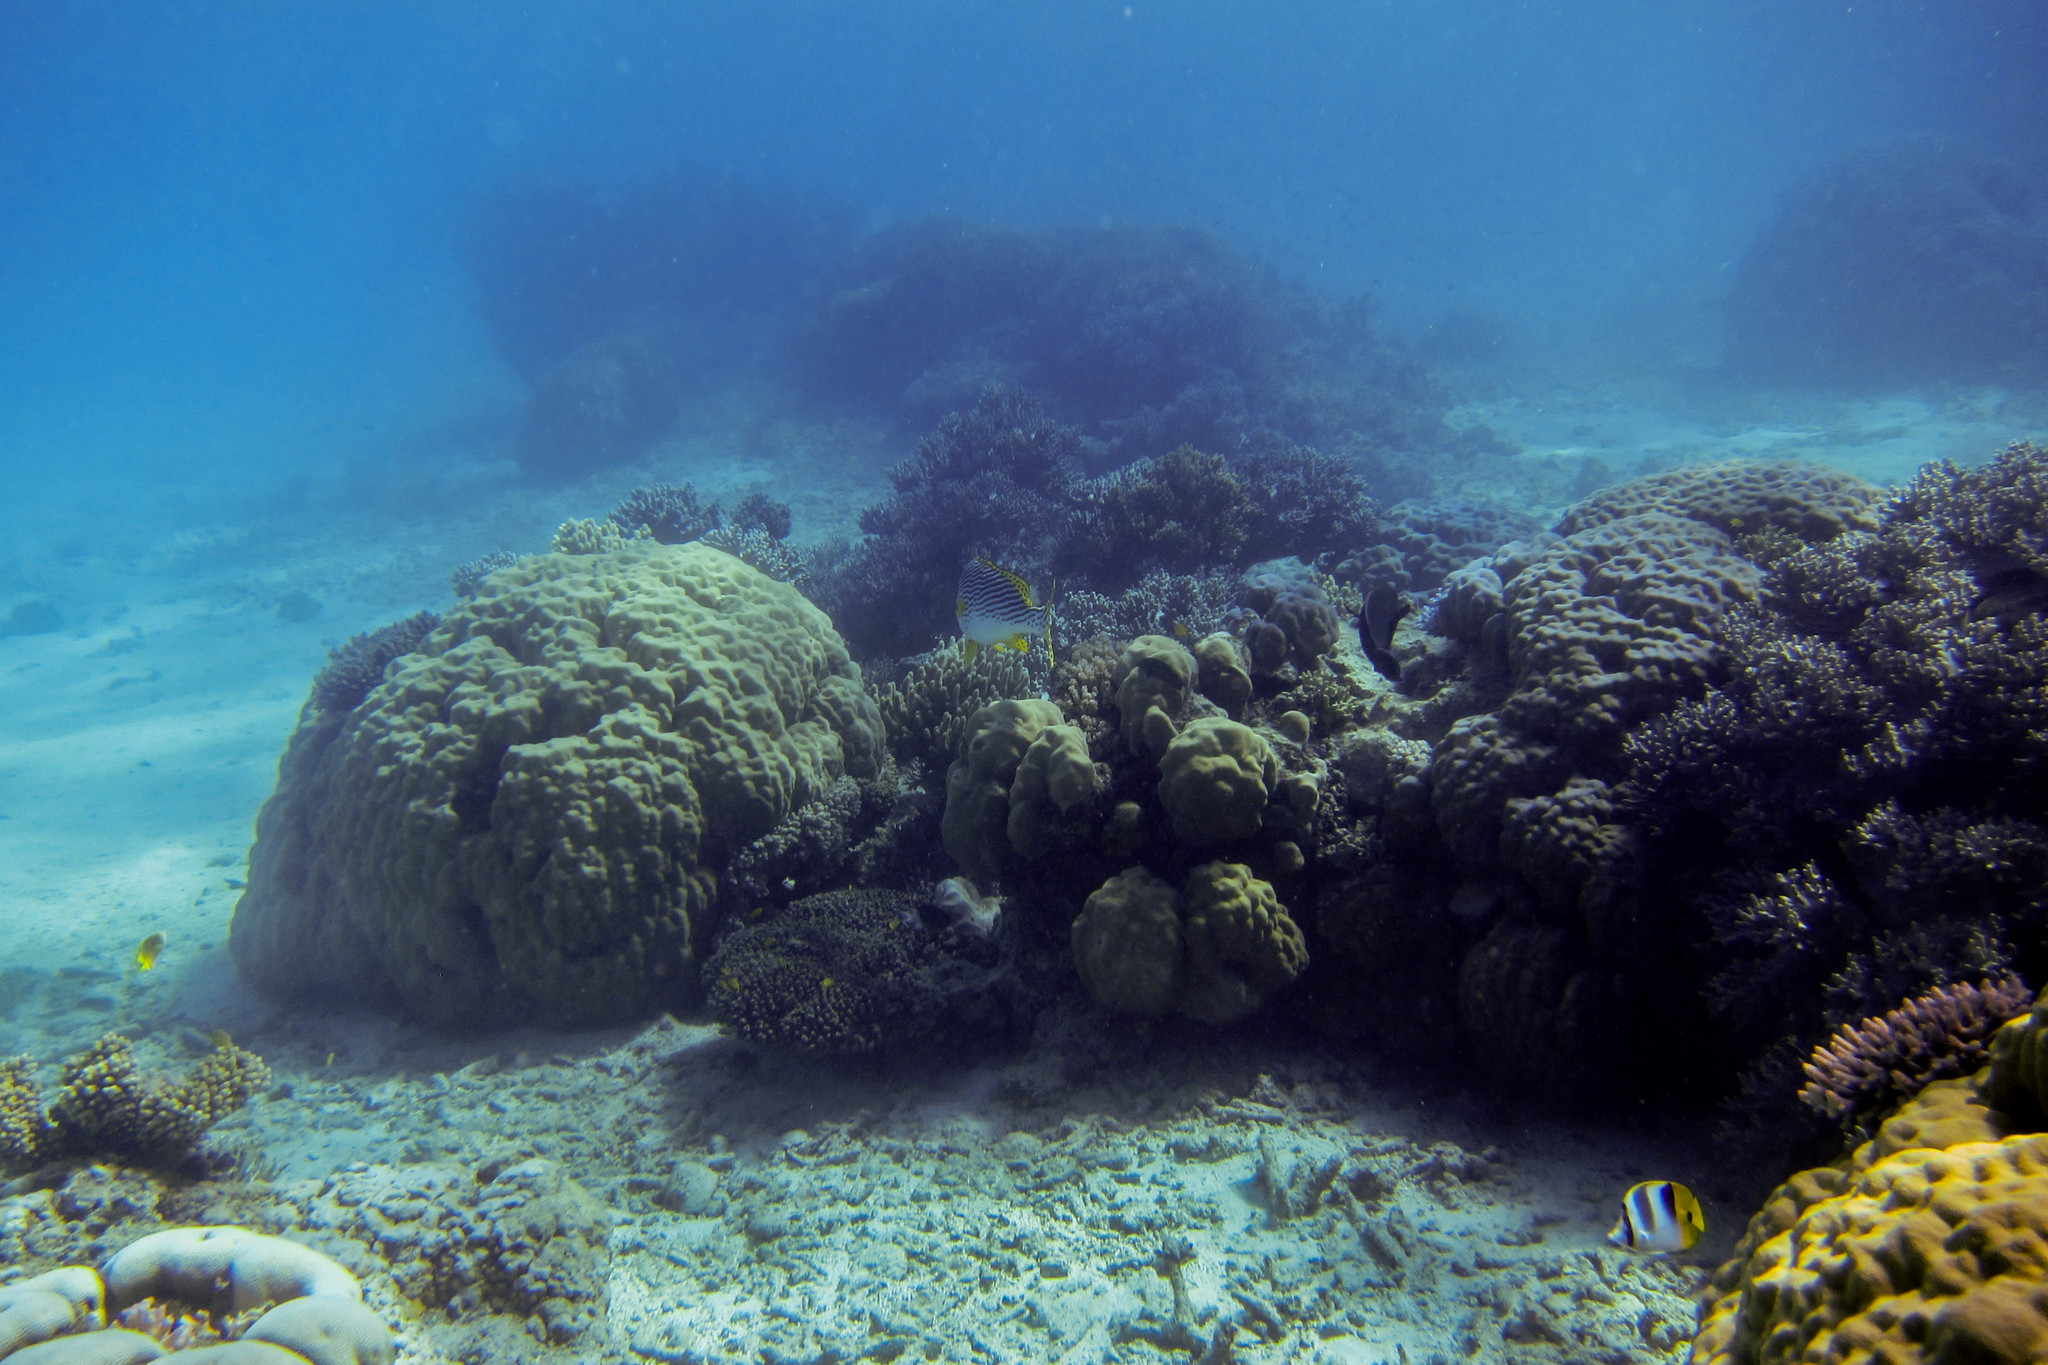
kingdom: Animalia
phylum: Chordata
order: Perciformes
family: Chaetodontidae
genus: Chaetodon
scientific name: Chaetodon ulietensis
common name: Pacific double-saddle butterflyfish
